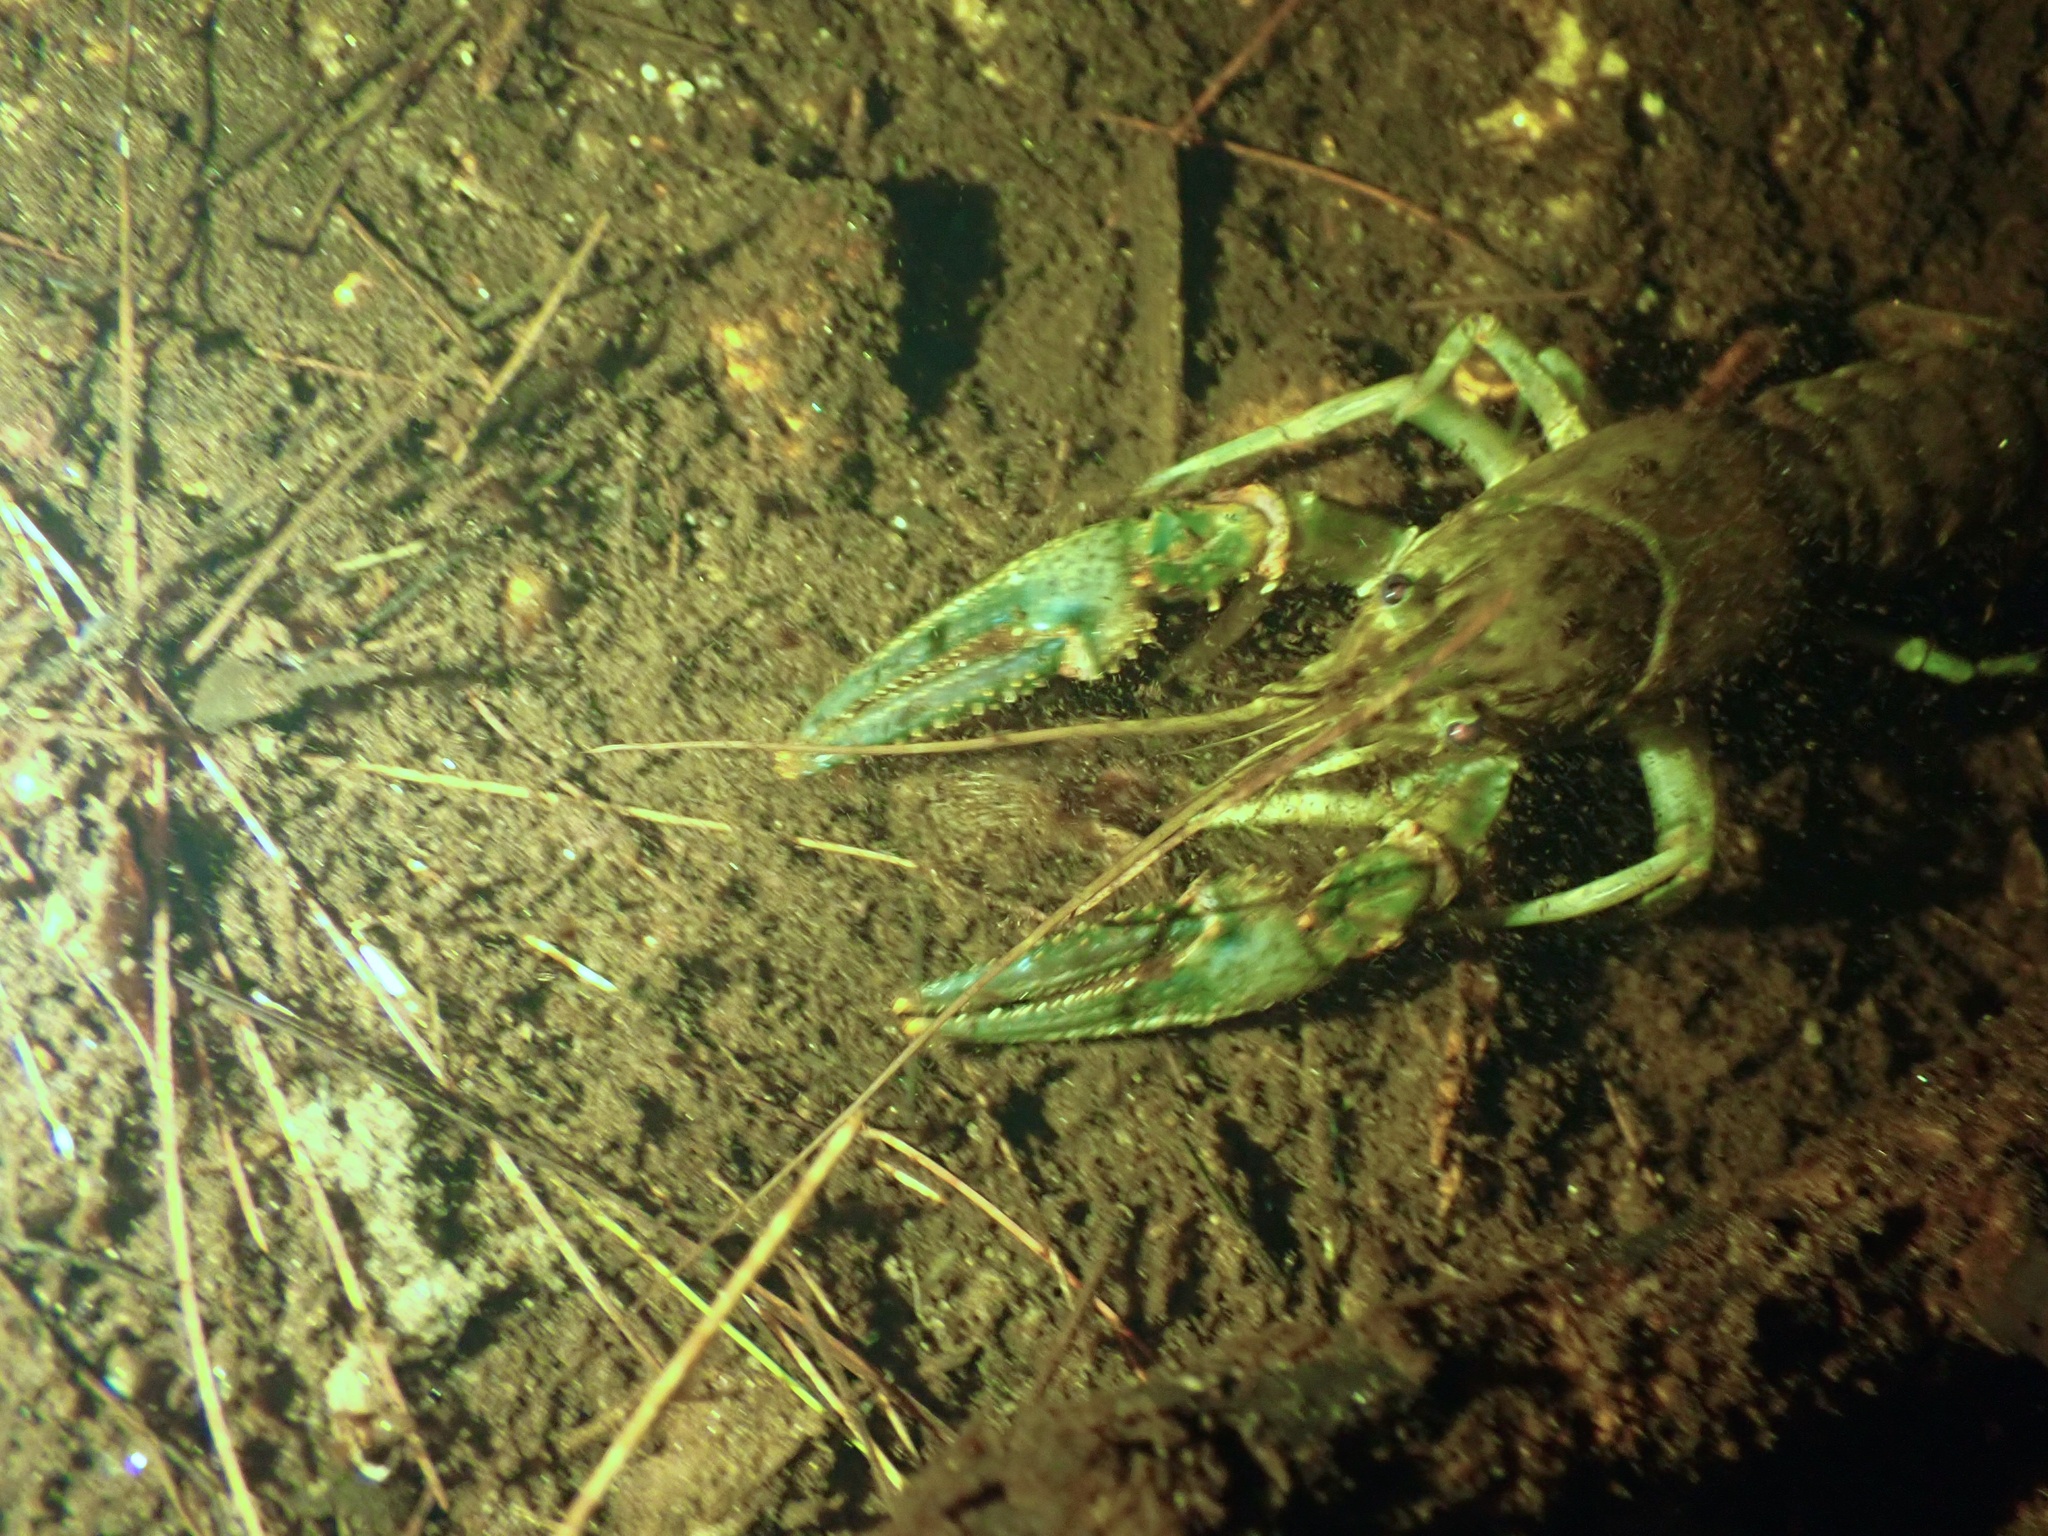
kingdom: Animalia
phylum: Arthropoda
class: Malacostraca
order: Decapoda
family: Cambaridae
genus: Faxonius
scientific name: Faxonius virilis
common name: Virile crayfish
